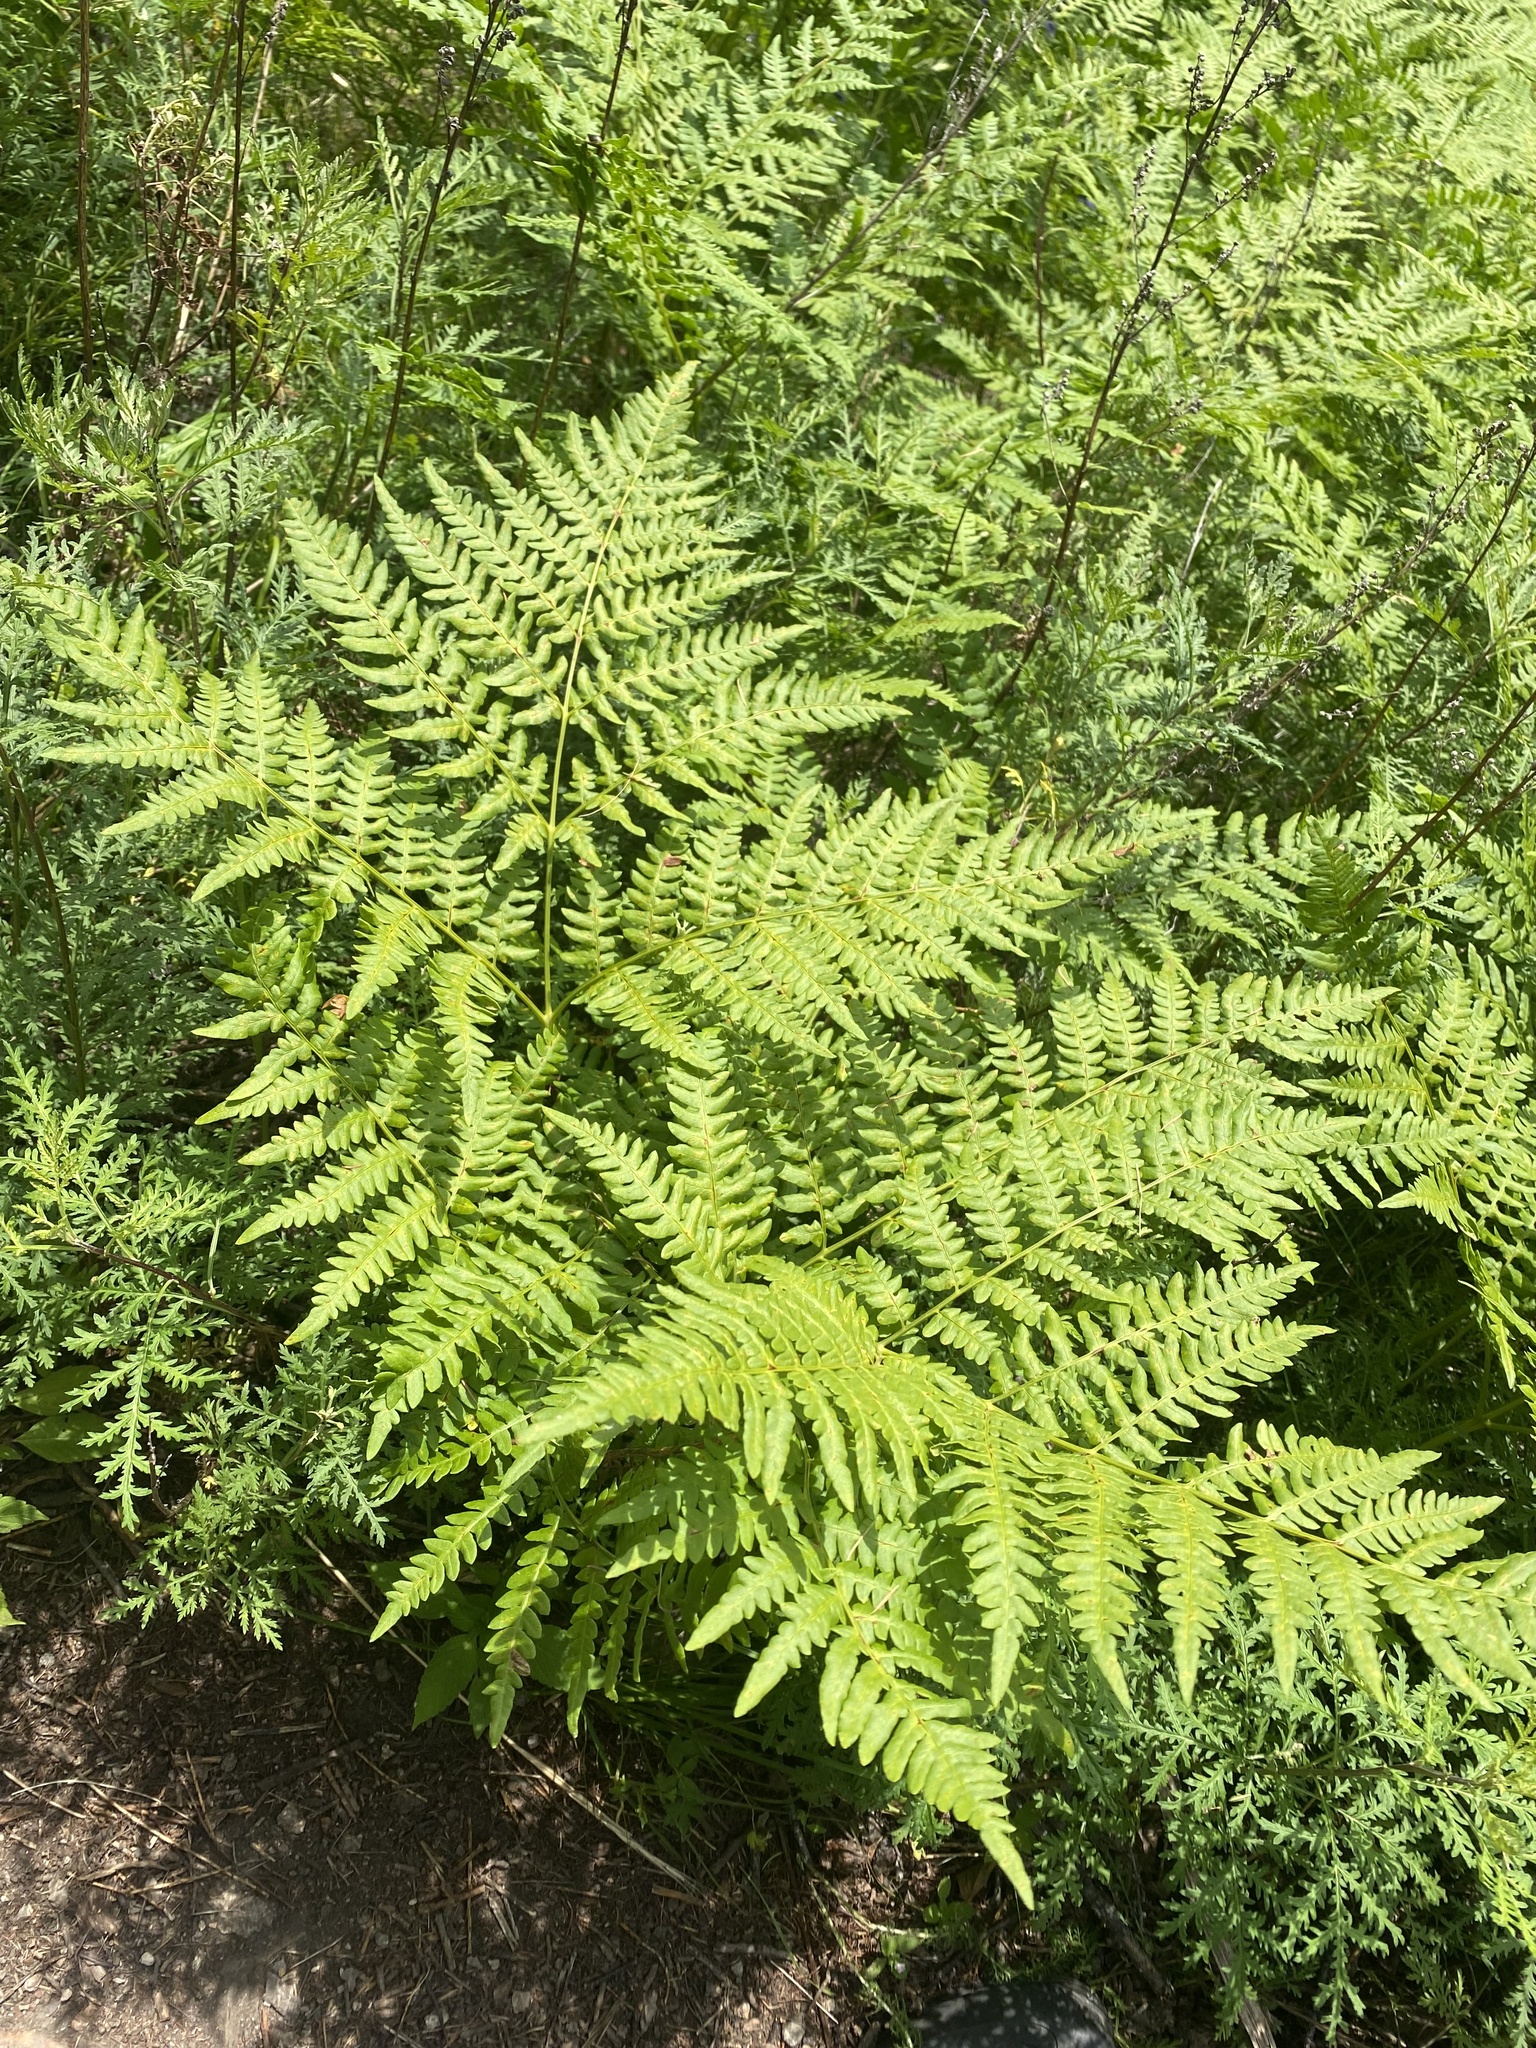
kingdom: Plantae
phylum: Tracheophyta
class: Polypodiopsida
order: Polypodiales
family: Dennstaedtiaceae
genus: Pteridium
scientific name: Pteridium aquilinum
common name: Bracken
